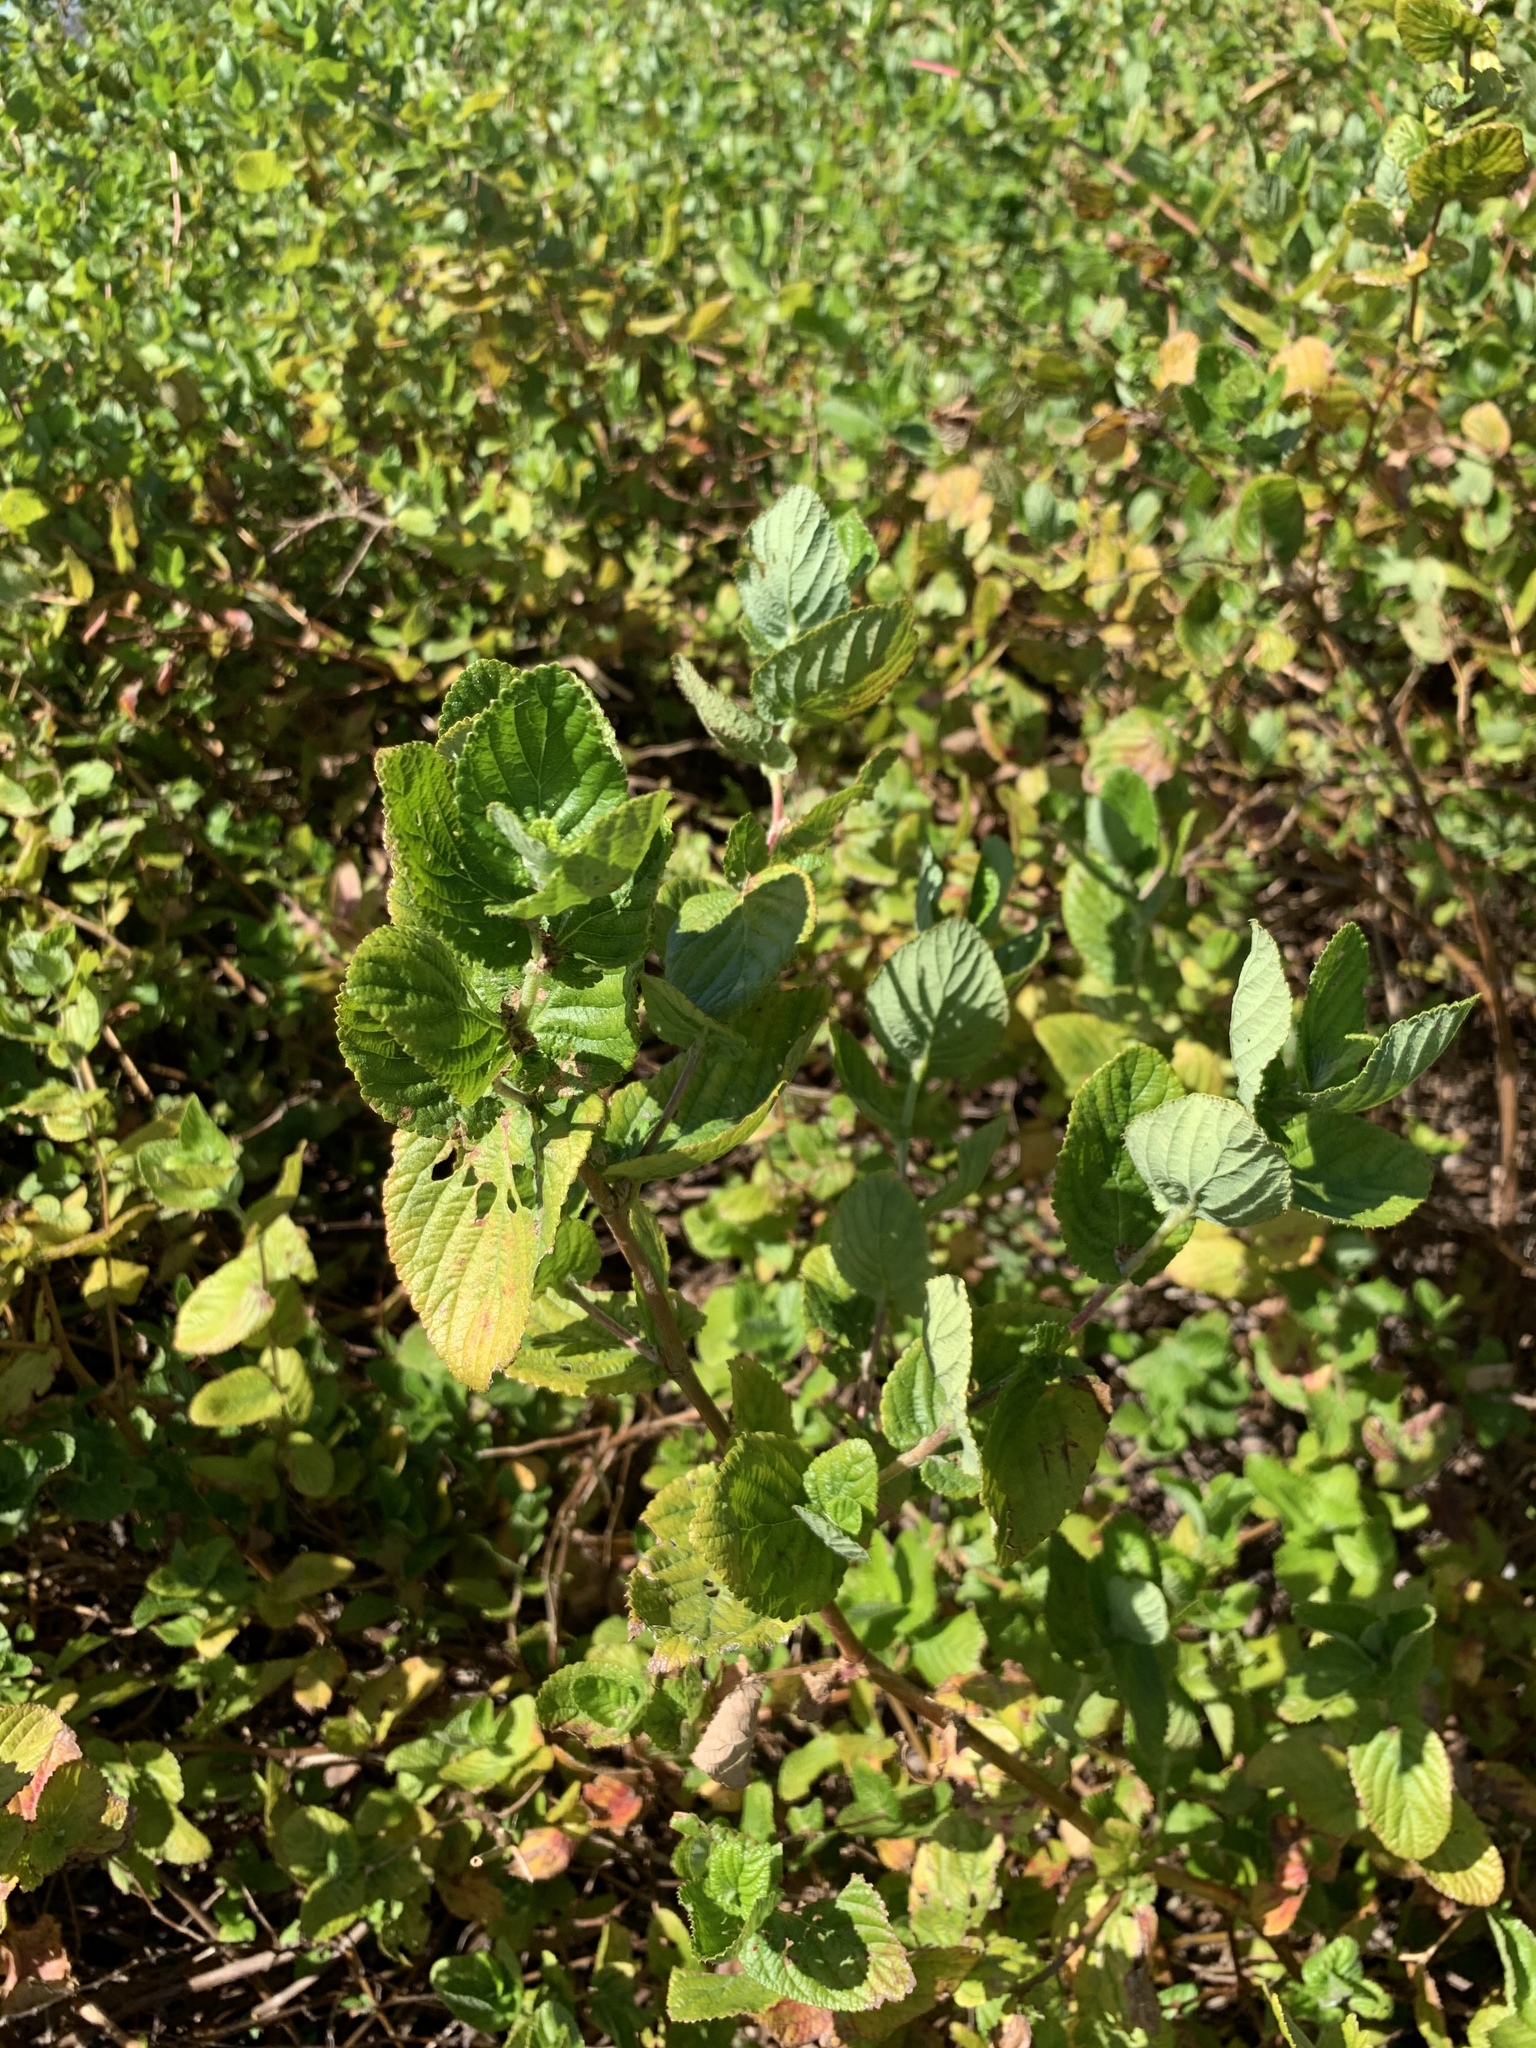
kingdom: Plantae
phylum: Tracheophyta
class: Magnoliopsida
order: Rosales
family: Rosaceae
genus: Cliffortia
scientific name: Cliffortia odorata
